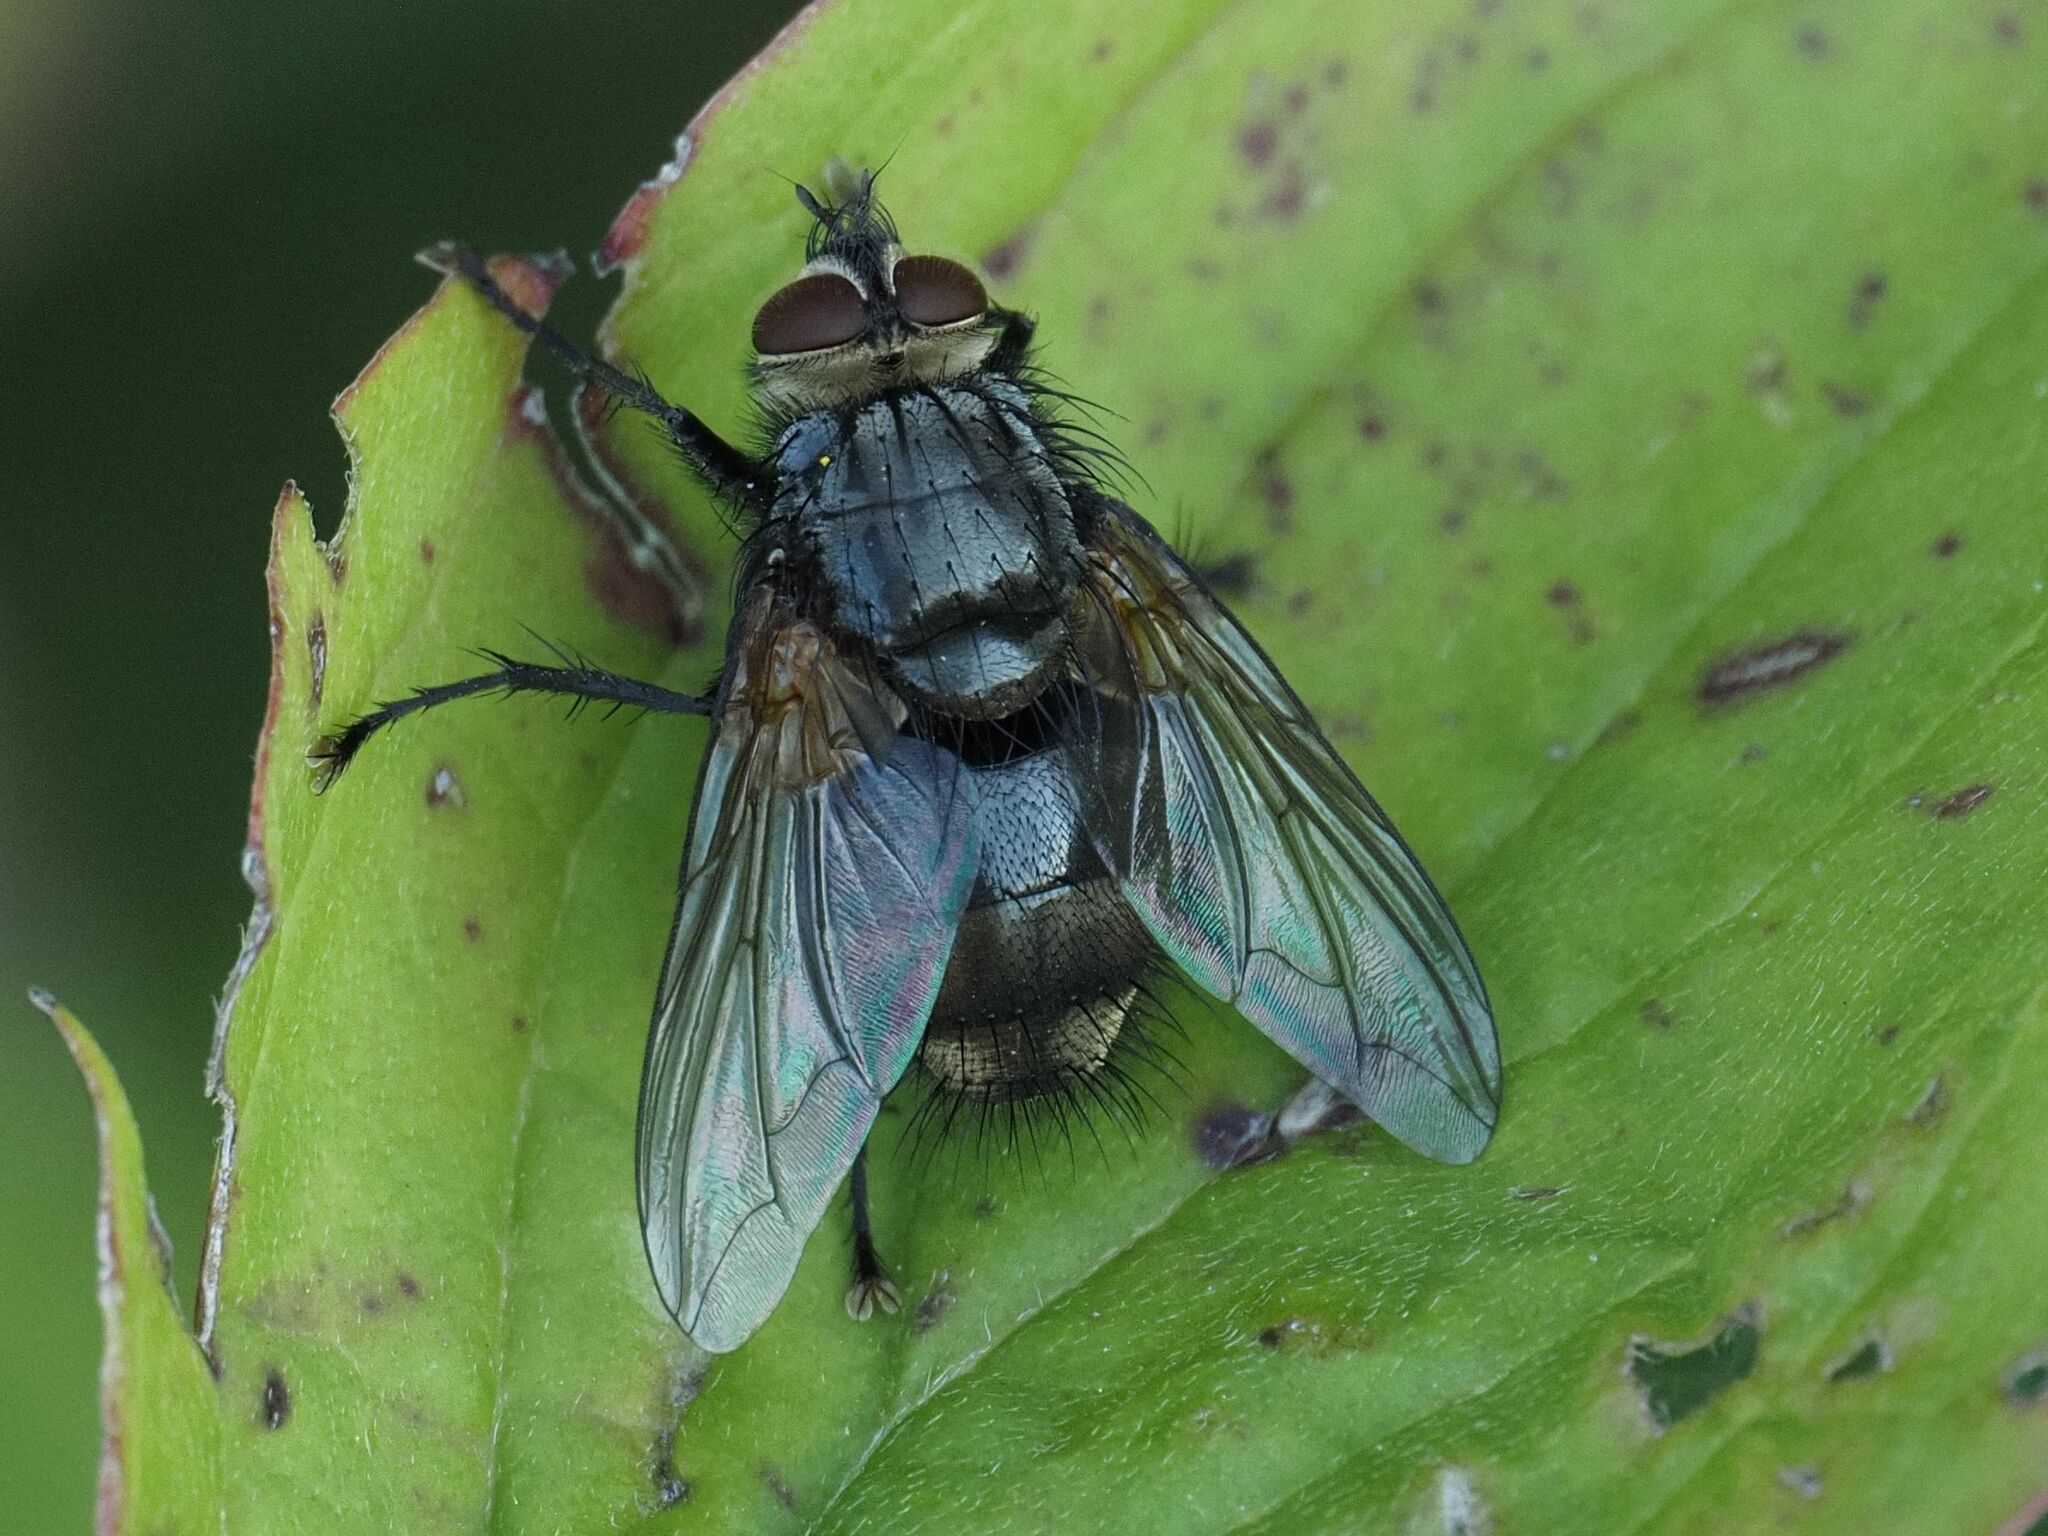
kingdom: Animalia
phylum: Arthropoda
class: Insecta
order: Diptera
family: Tachinidae
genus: Nemoraea
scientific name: Nemoraea pellucida
